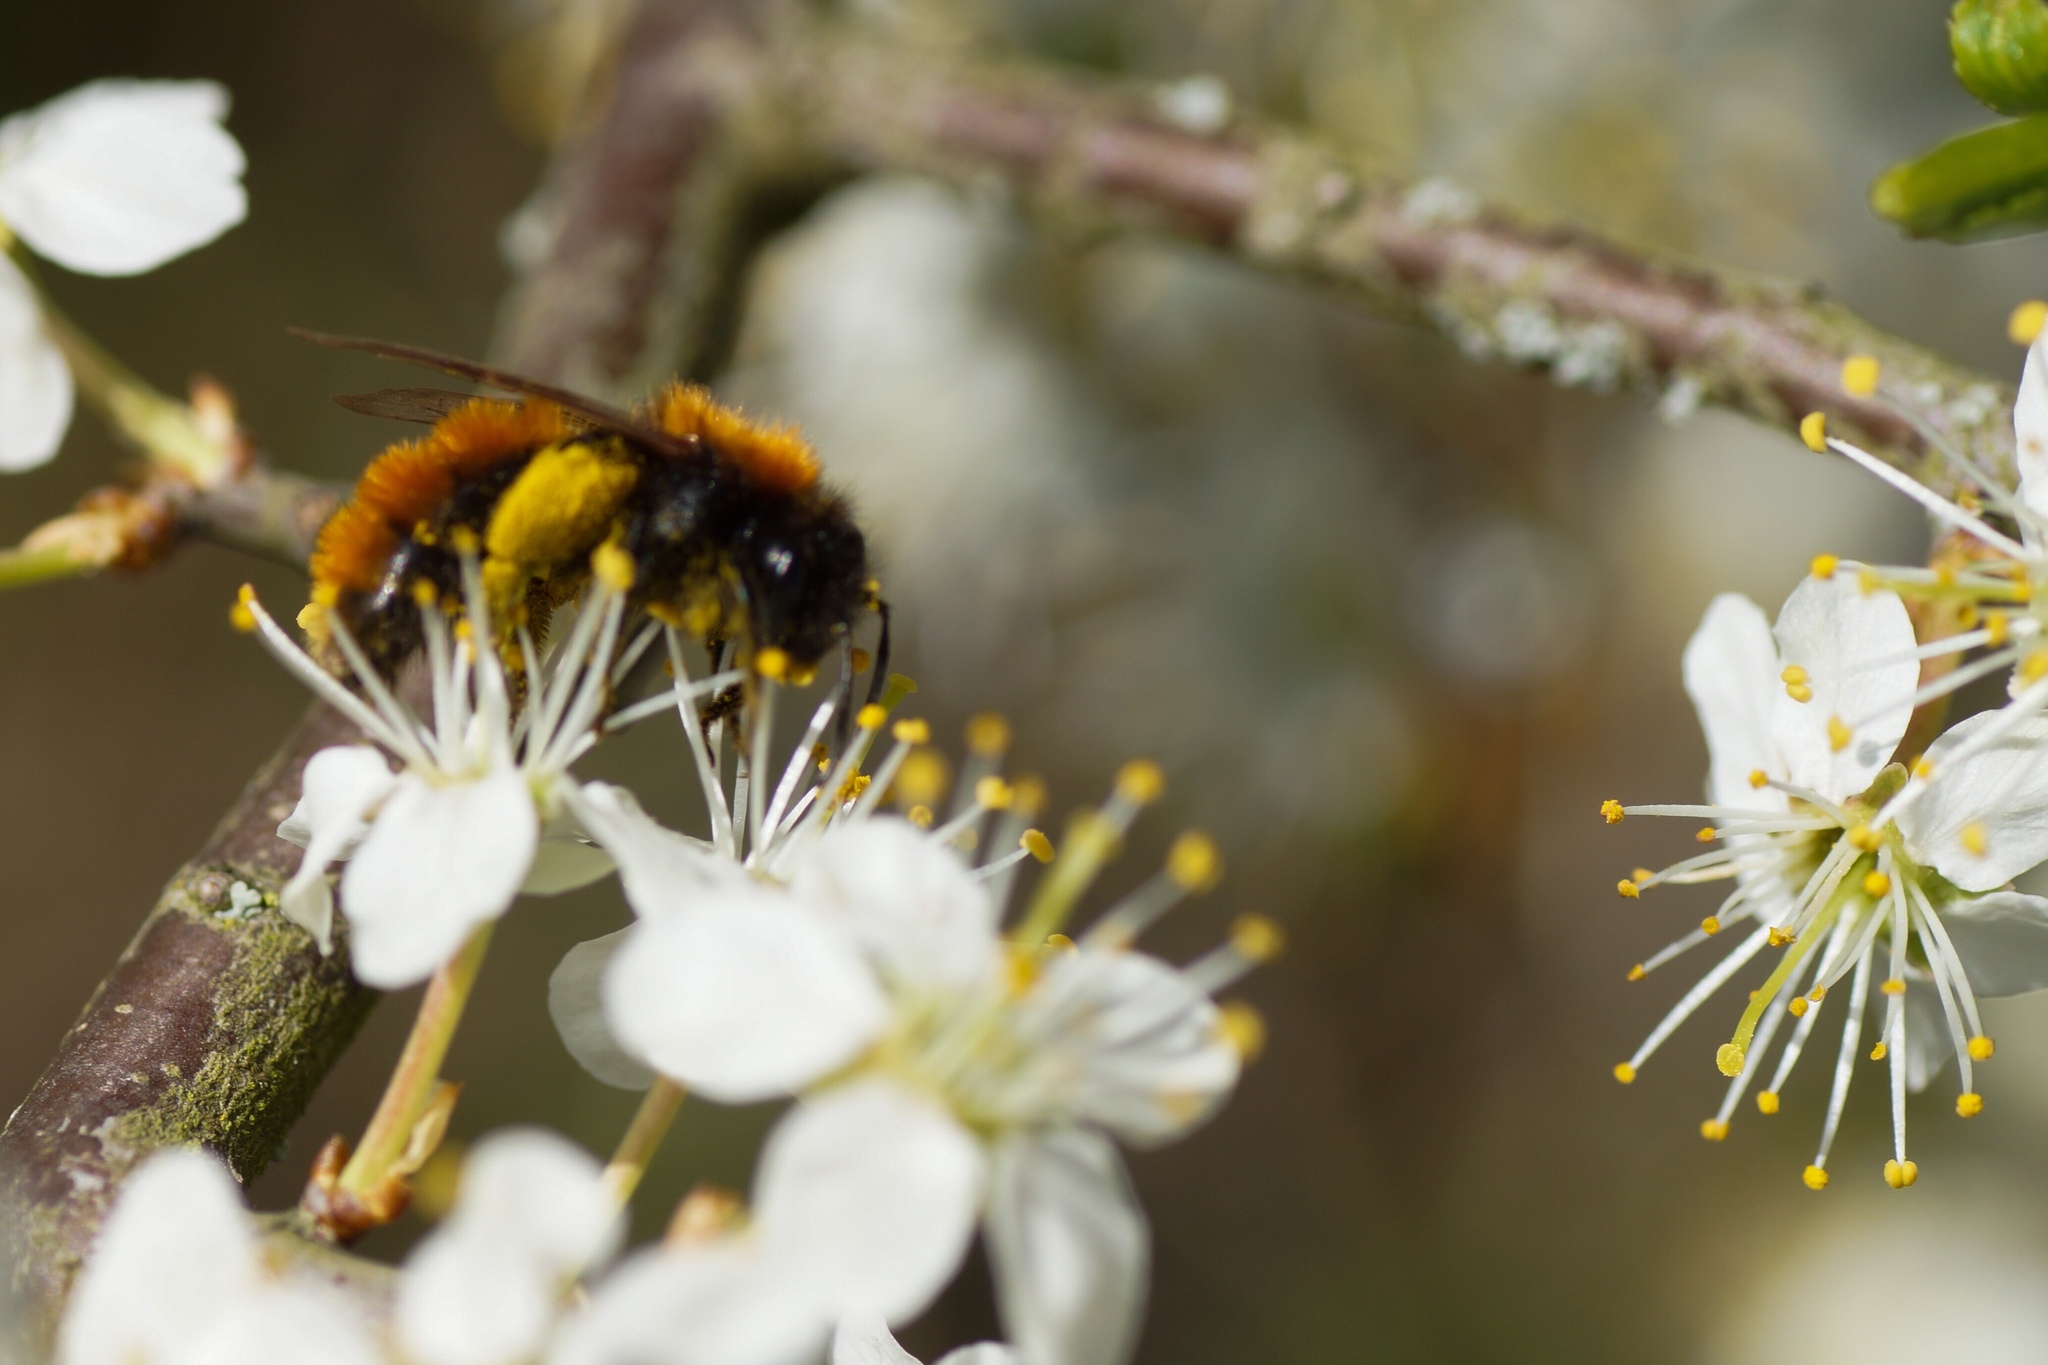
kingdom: Animalia
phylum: Arthropoda
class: Insecta
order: Hymenoptera
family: Andrenidae
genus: Andrena
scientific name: Andrena fulva
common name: Tawny mining bee
